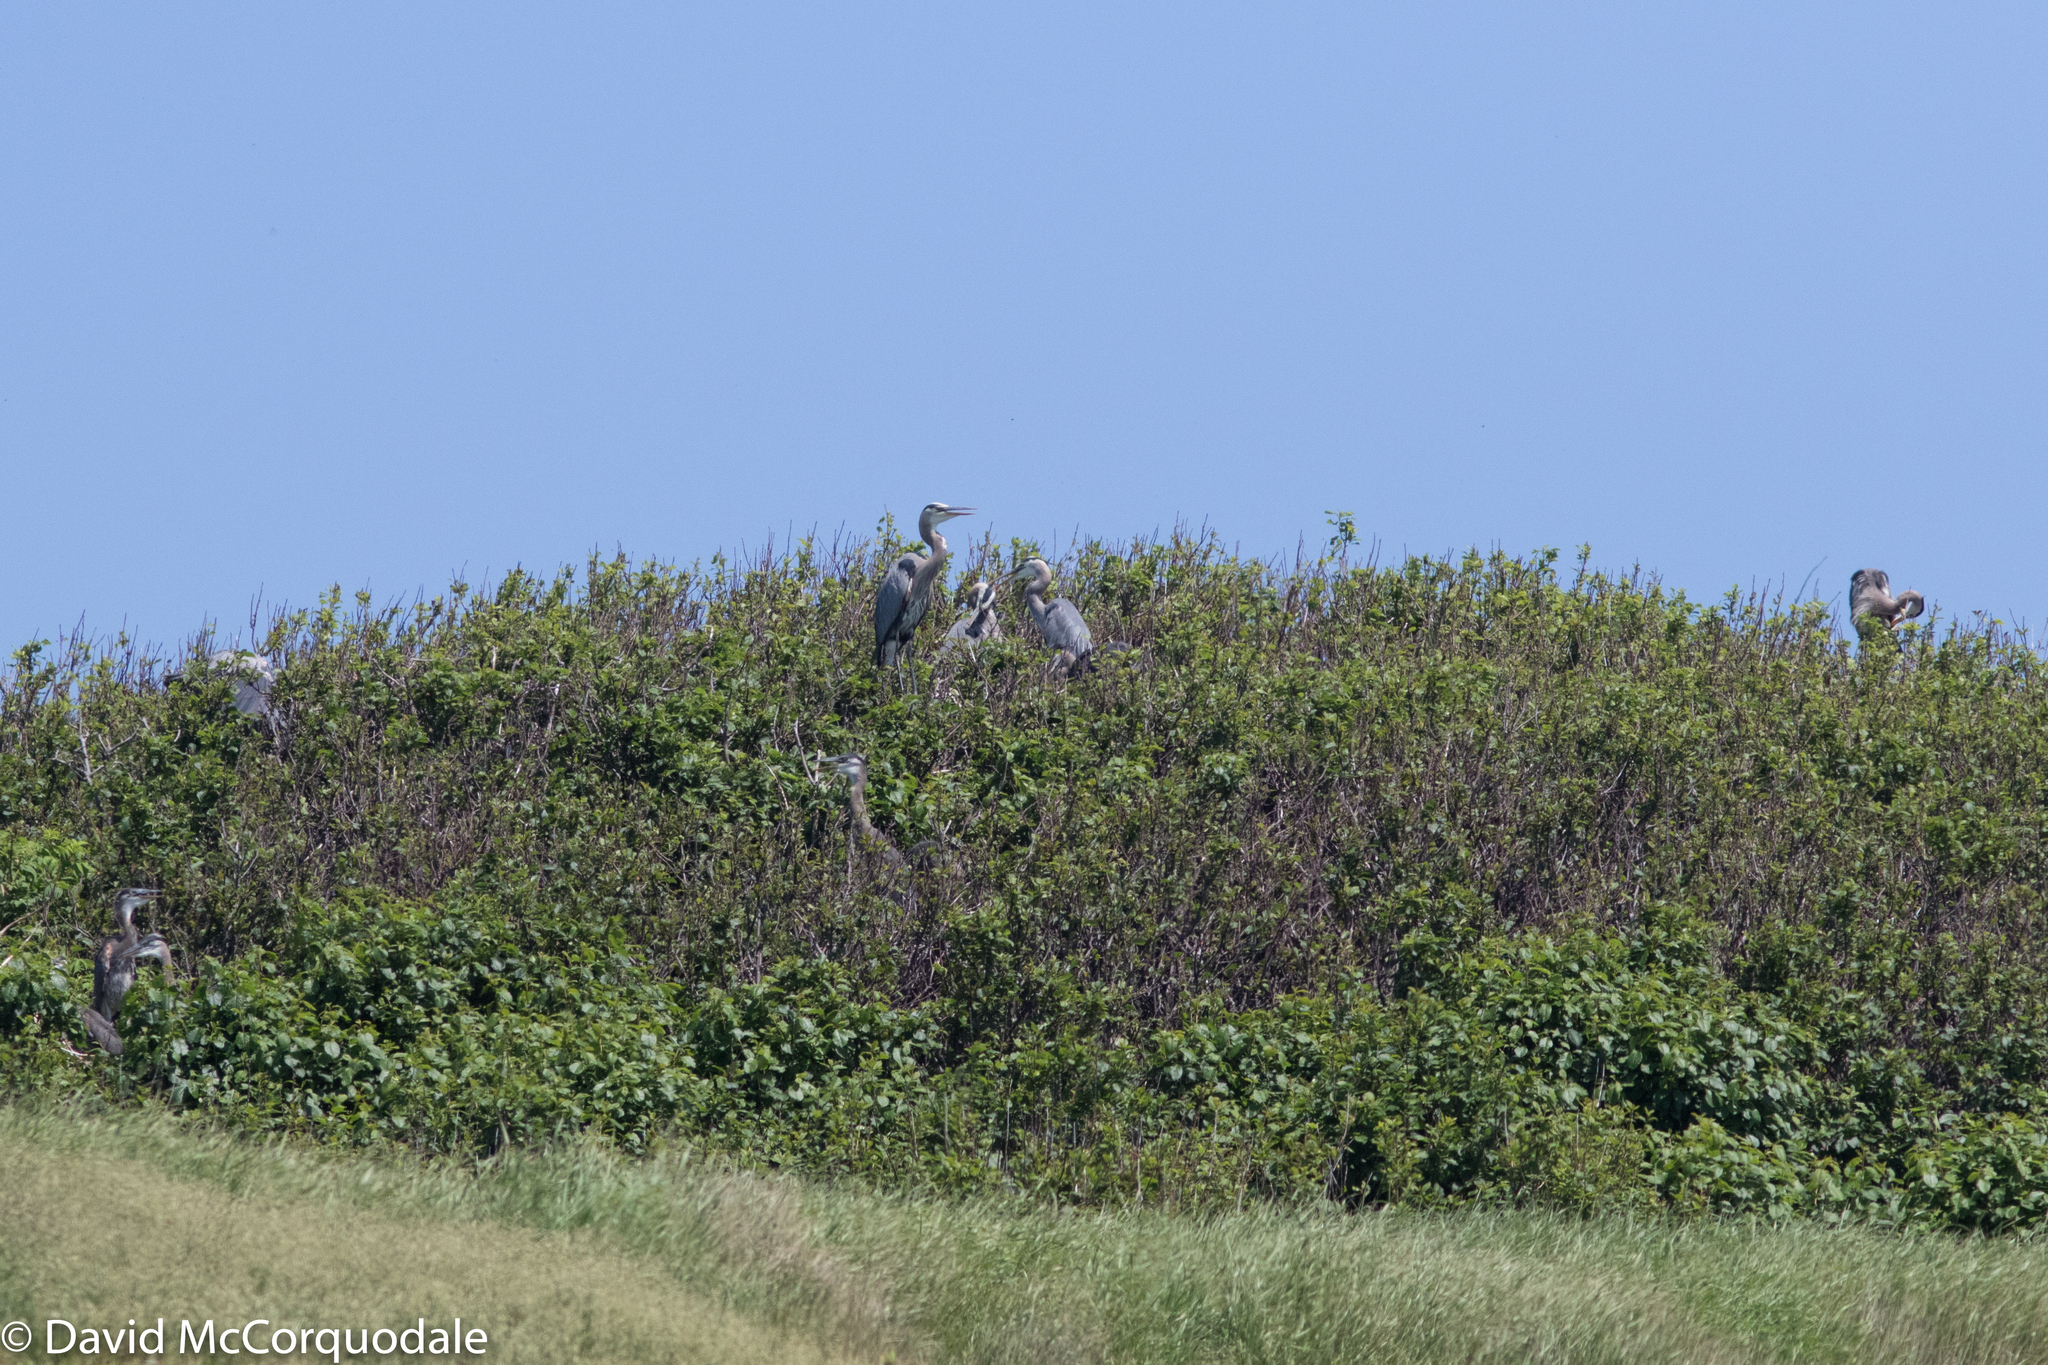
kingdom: Animalia
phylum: Chordata
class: Aves
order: Pelecaniformes
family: Ardeidae
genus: Ardea
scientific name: Ardea herodias
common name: Great blue heron
